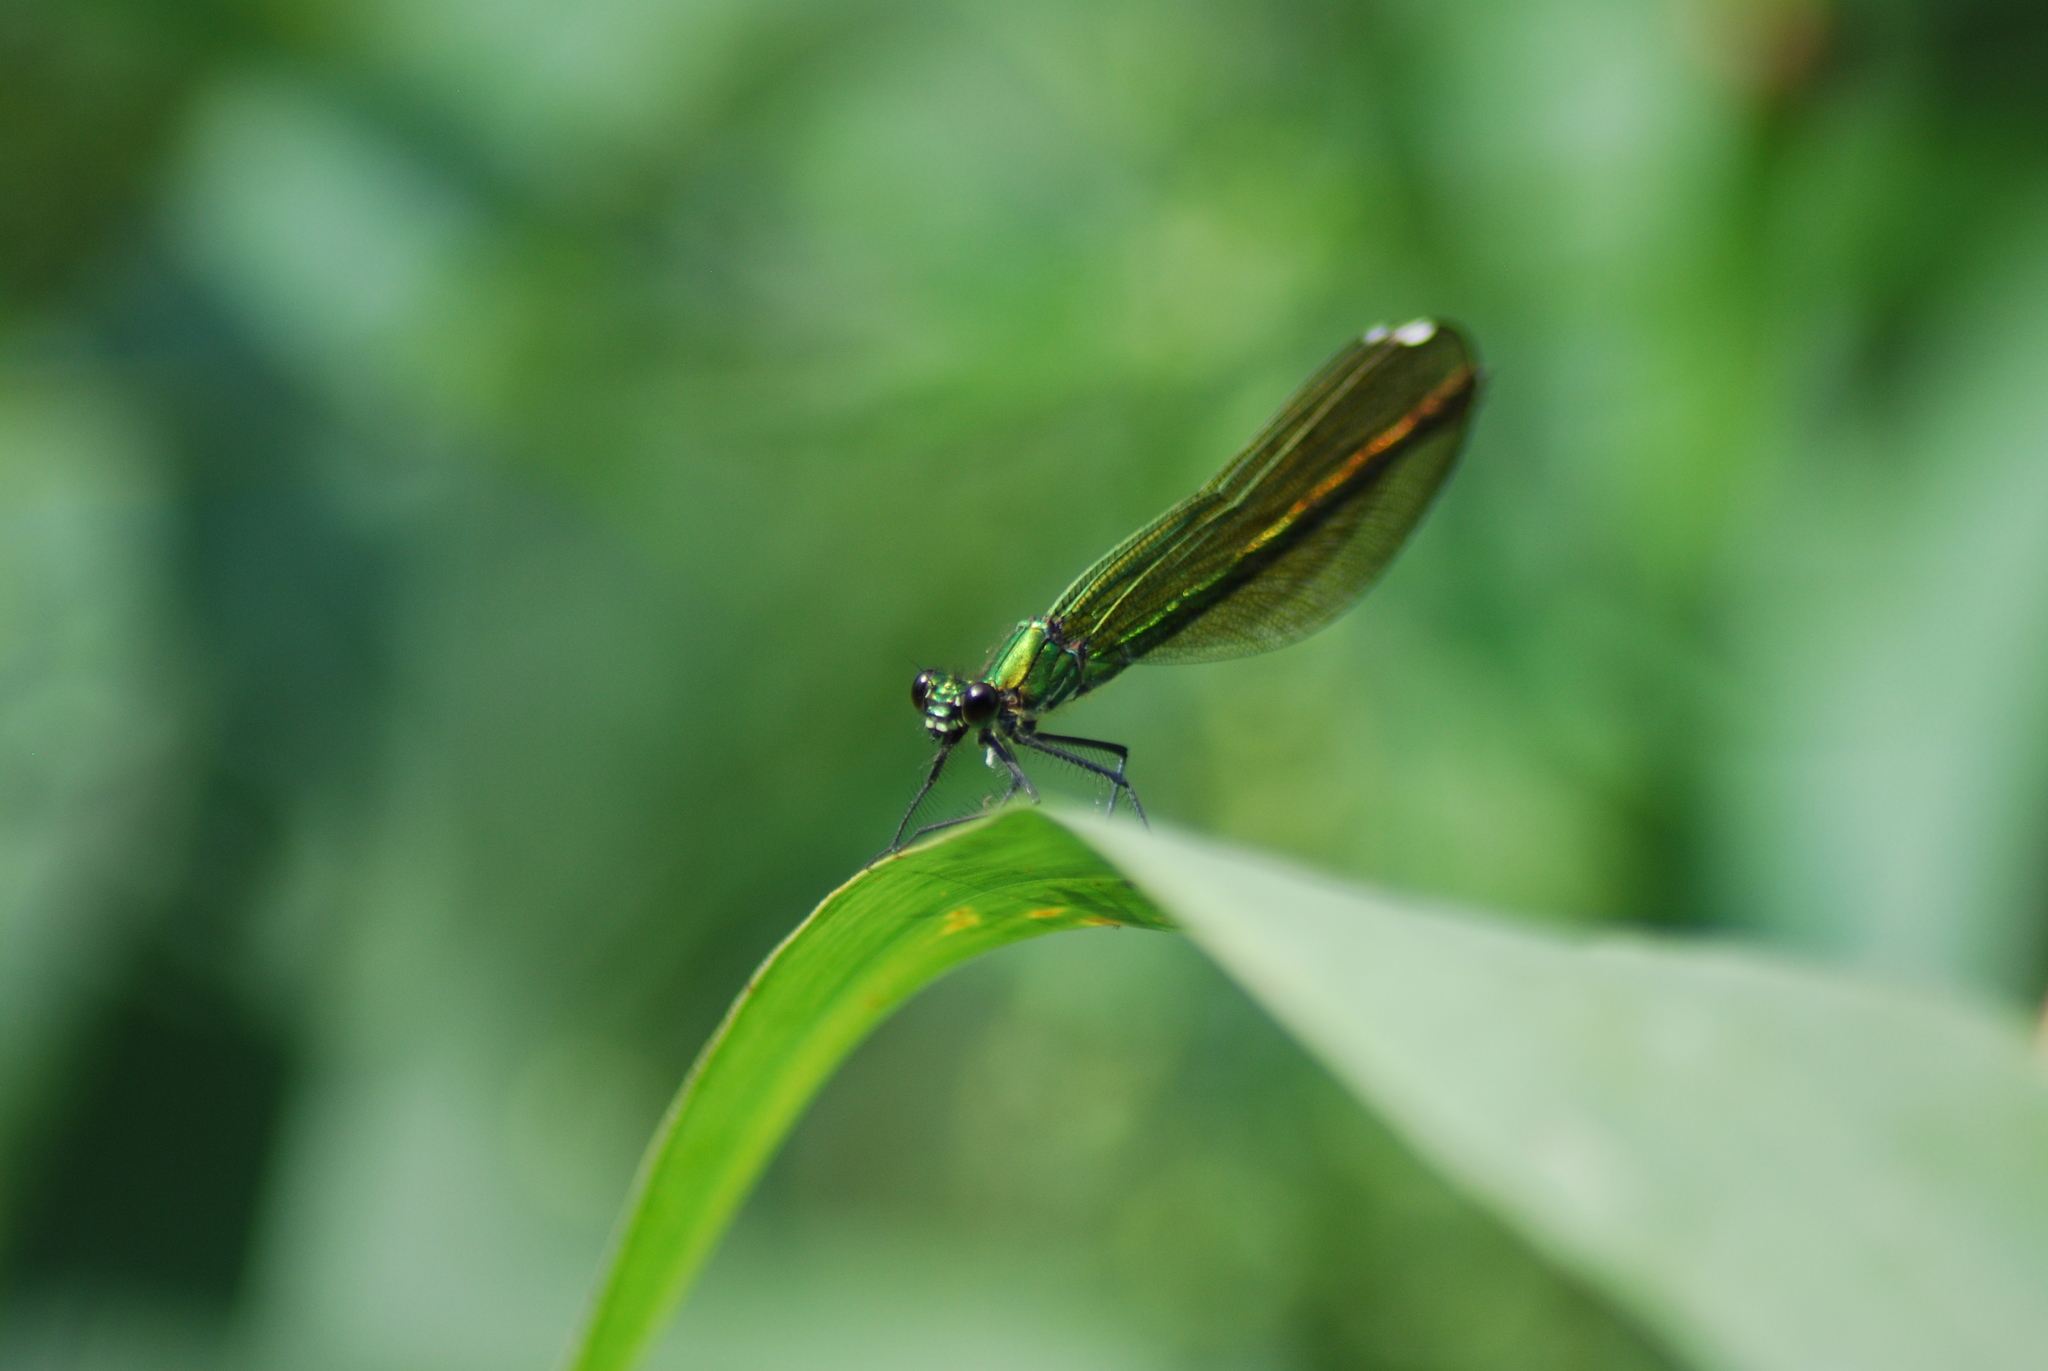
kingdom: Animalia
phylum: Arthropoda
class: Insecta
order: Odonata
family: Calopterygidae
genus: Calopteryx
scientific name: Calopteryx virgo
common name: Beautiful demoiselle
